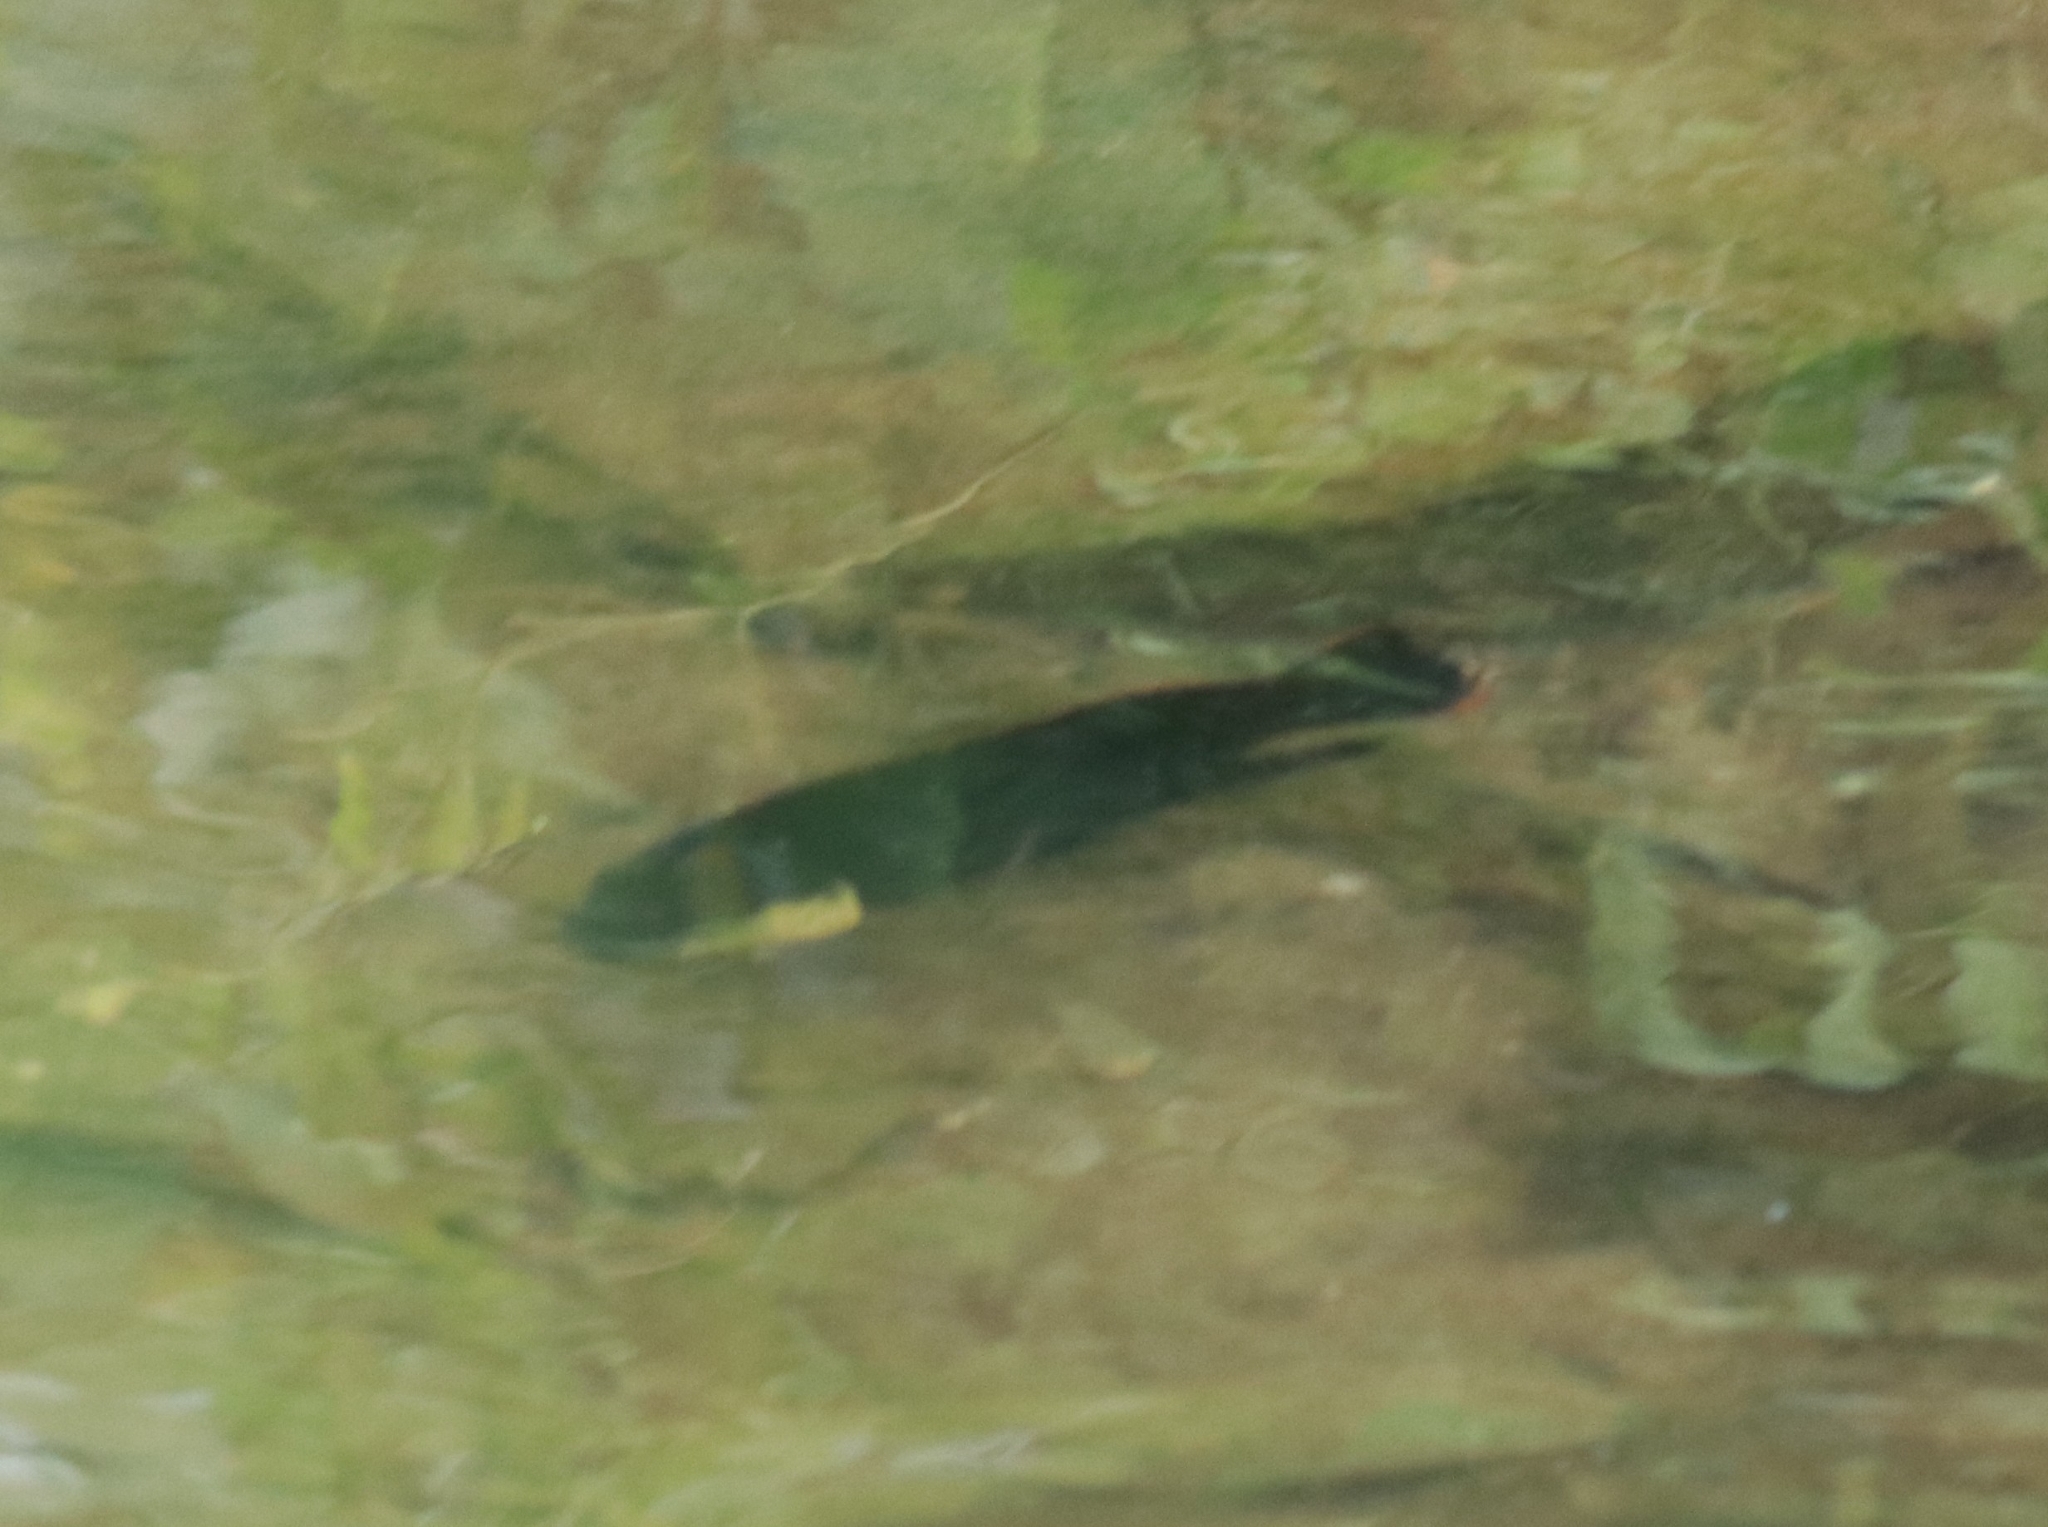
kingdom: Animalia
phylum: Chordata
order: Perciformes
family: Cichlidae
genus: Oreochromis
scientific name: Oreochromis mossambicus
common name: Mozambique tilapia
